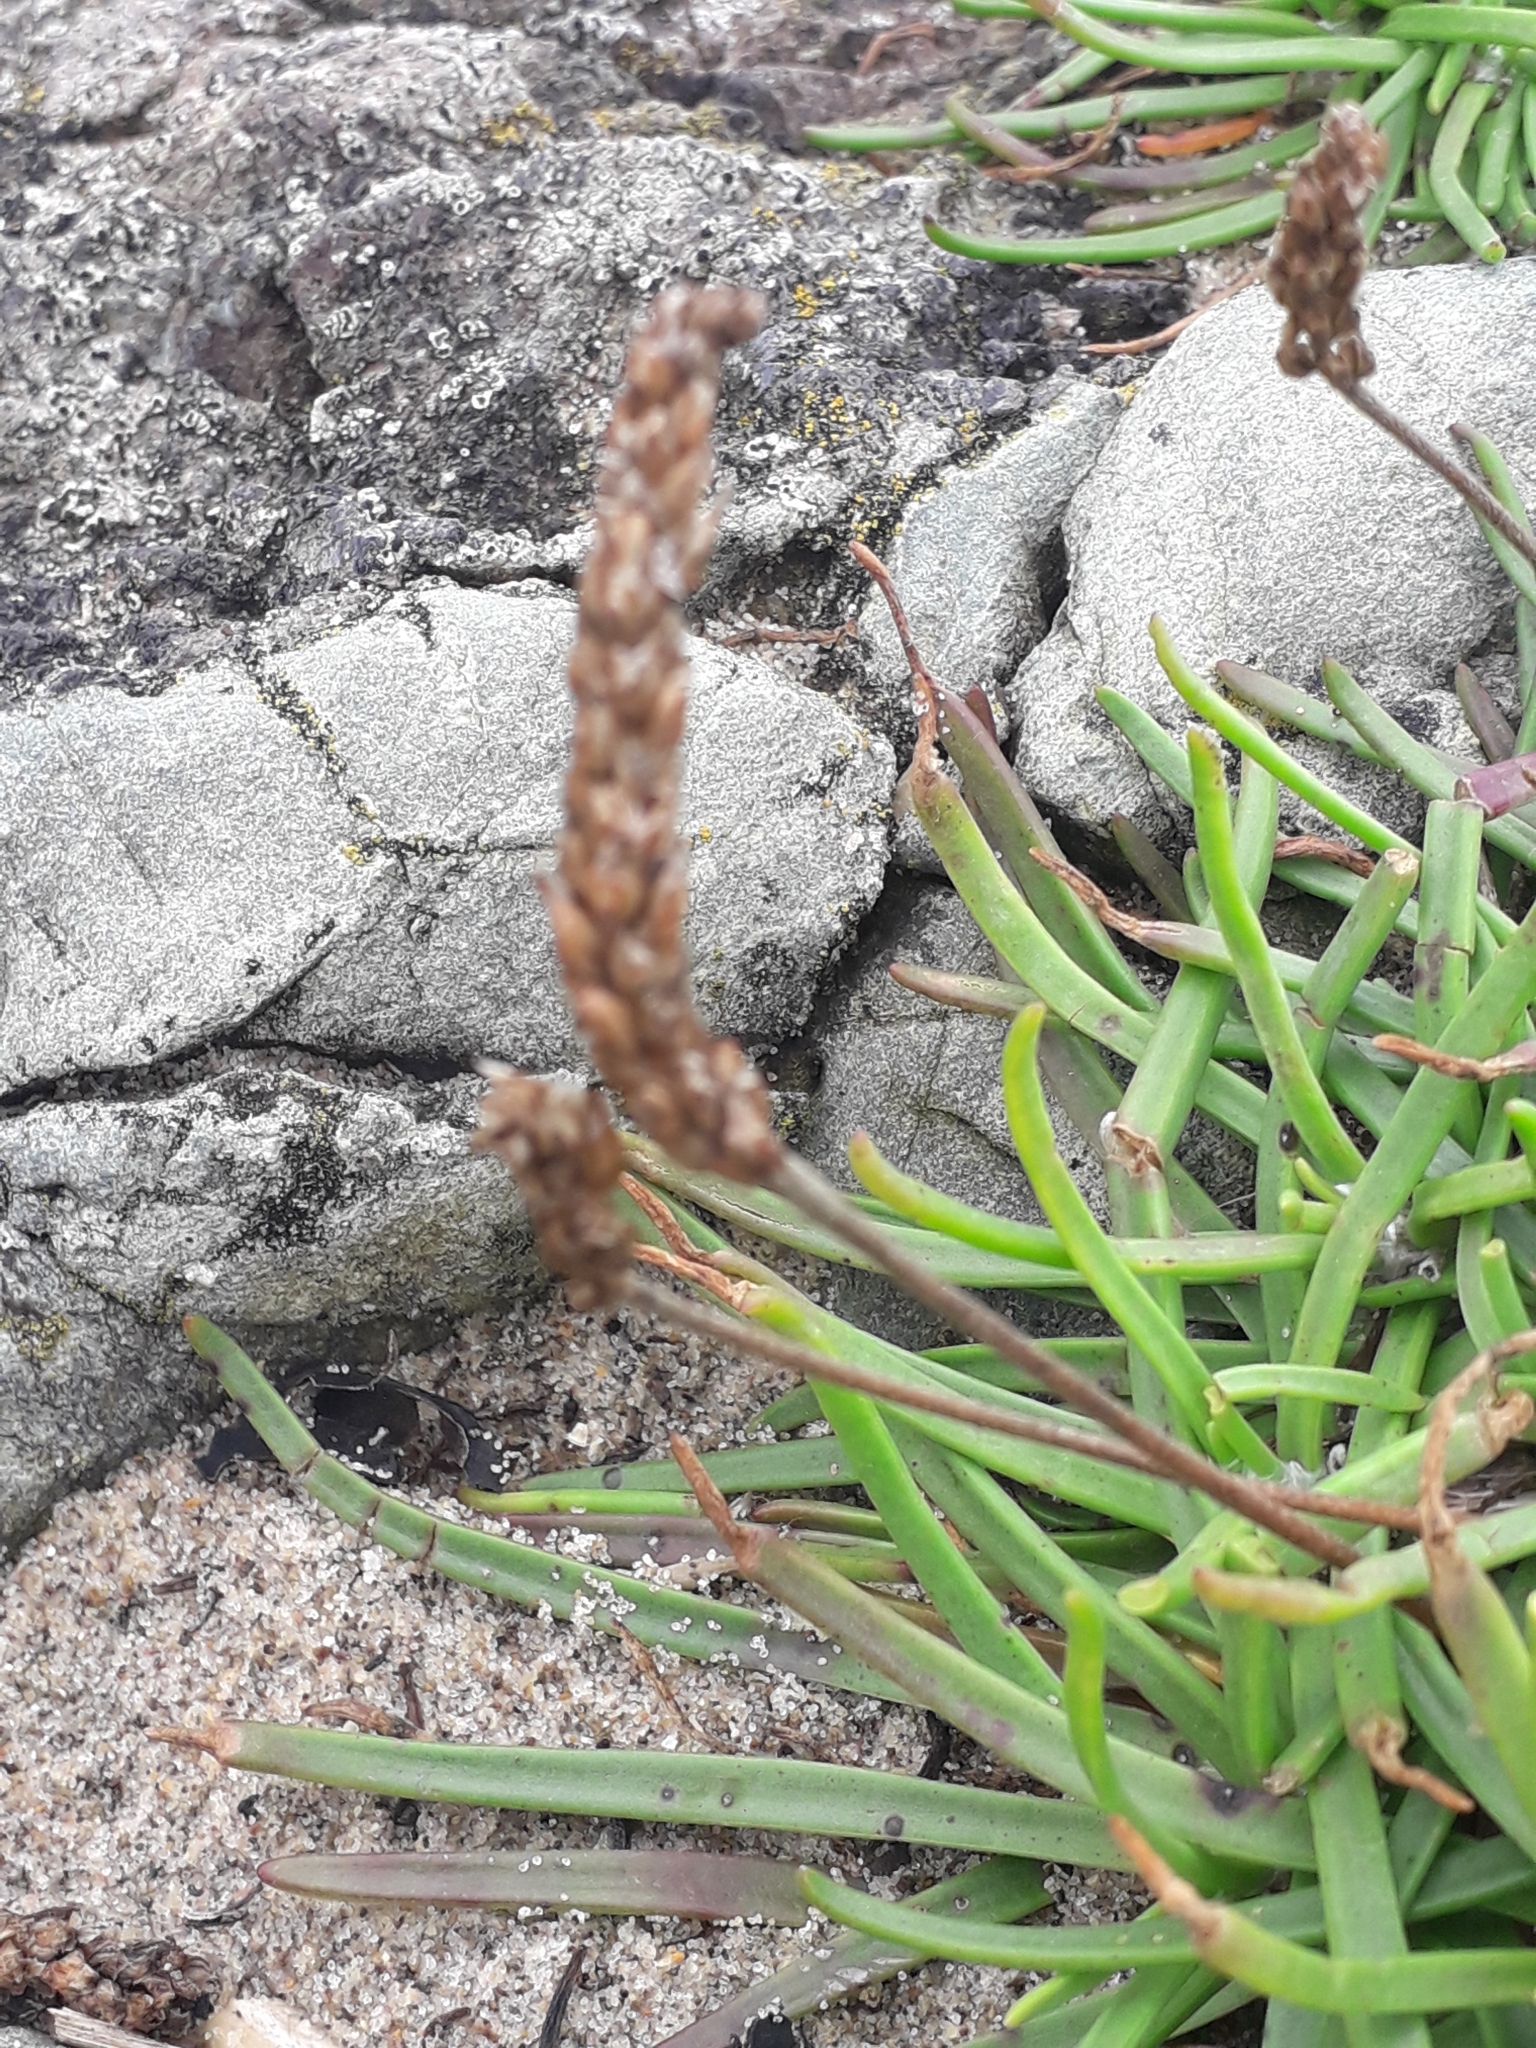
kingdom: Plantae
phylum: Tracheophyta
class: Magnoliopsida
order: Lamiales
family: Plantaginaceae
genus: Plantago
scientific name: Plantago maritima
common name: Sea plantain
